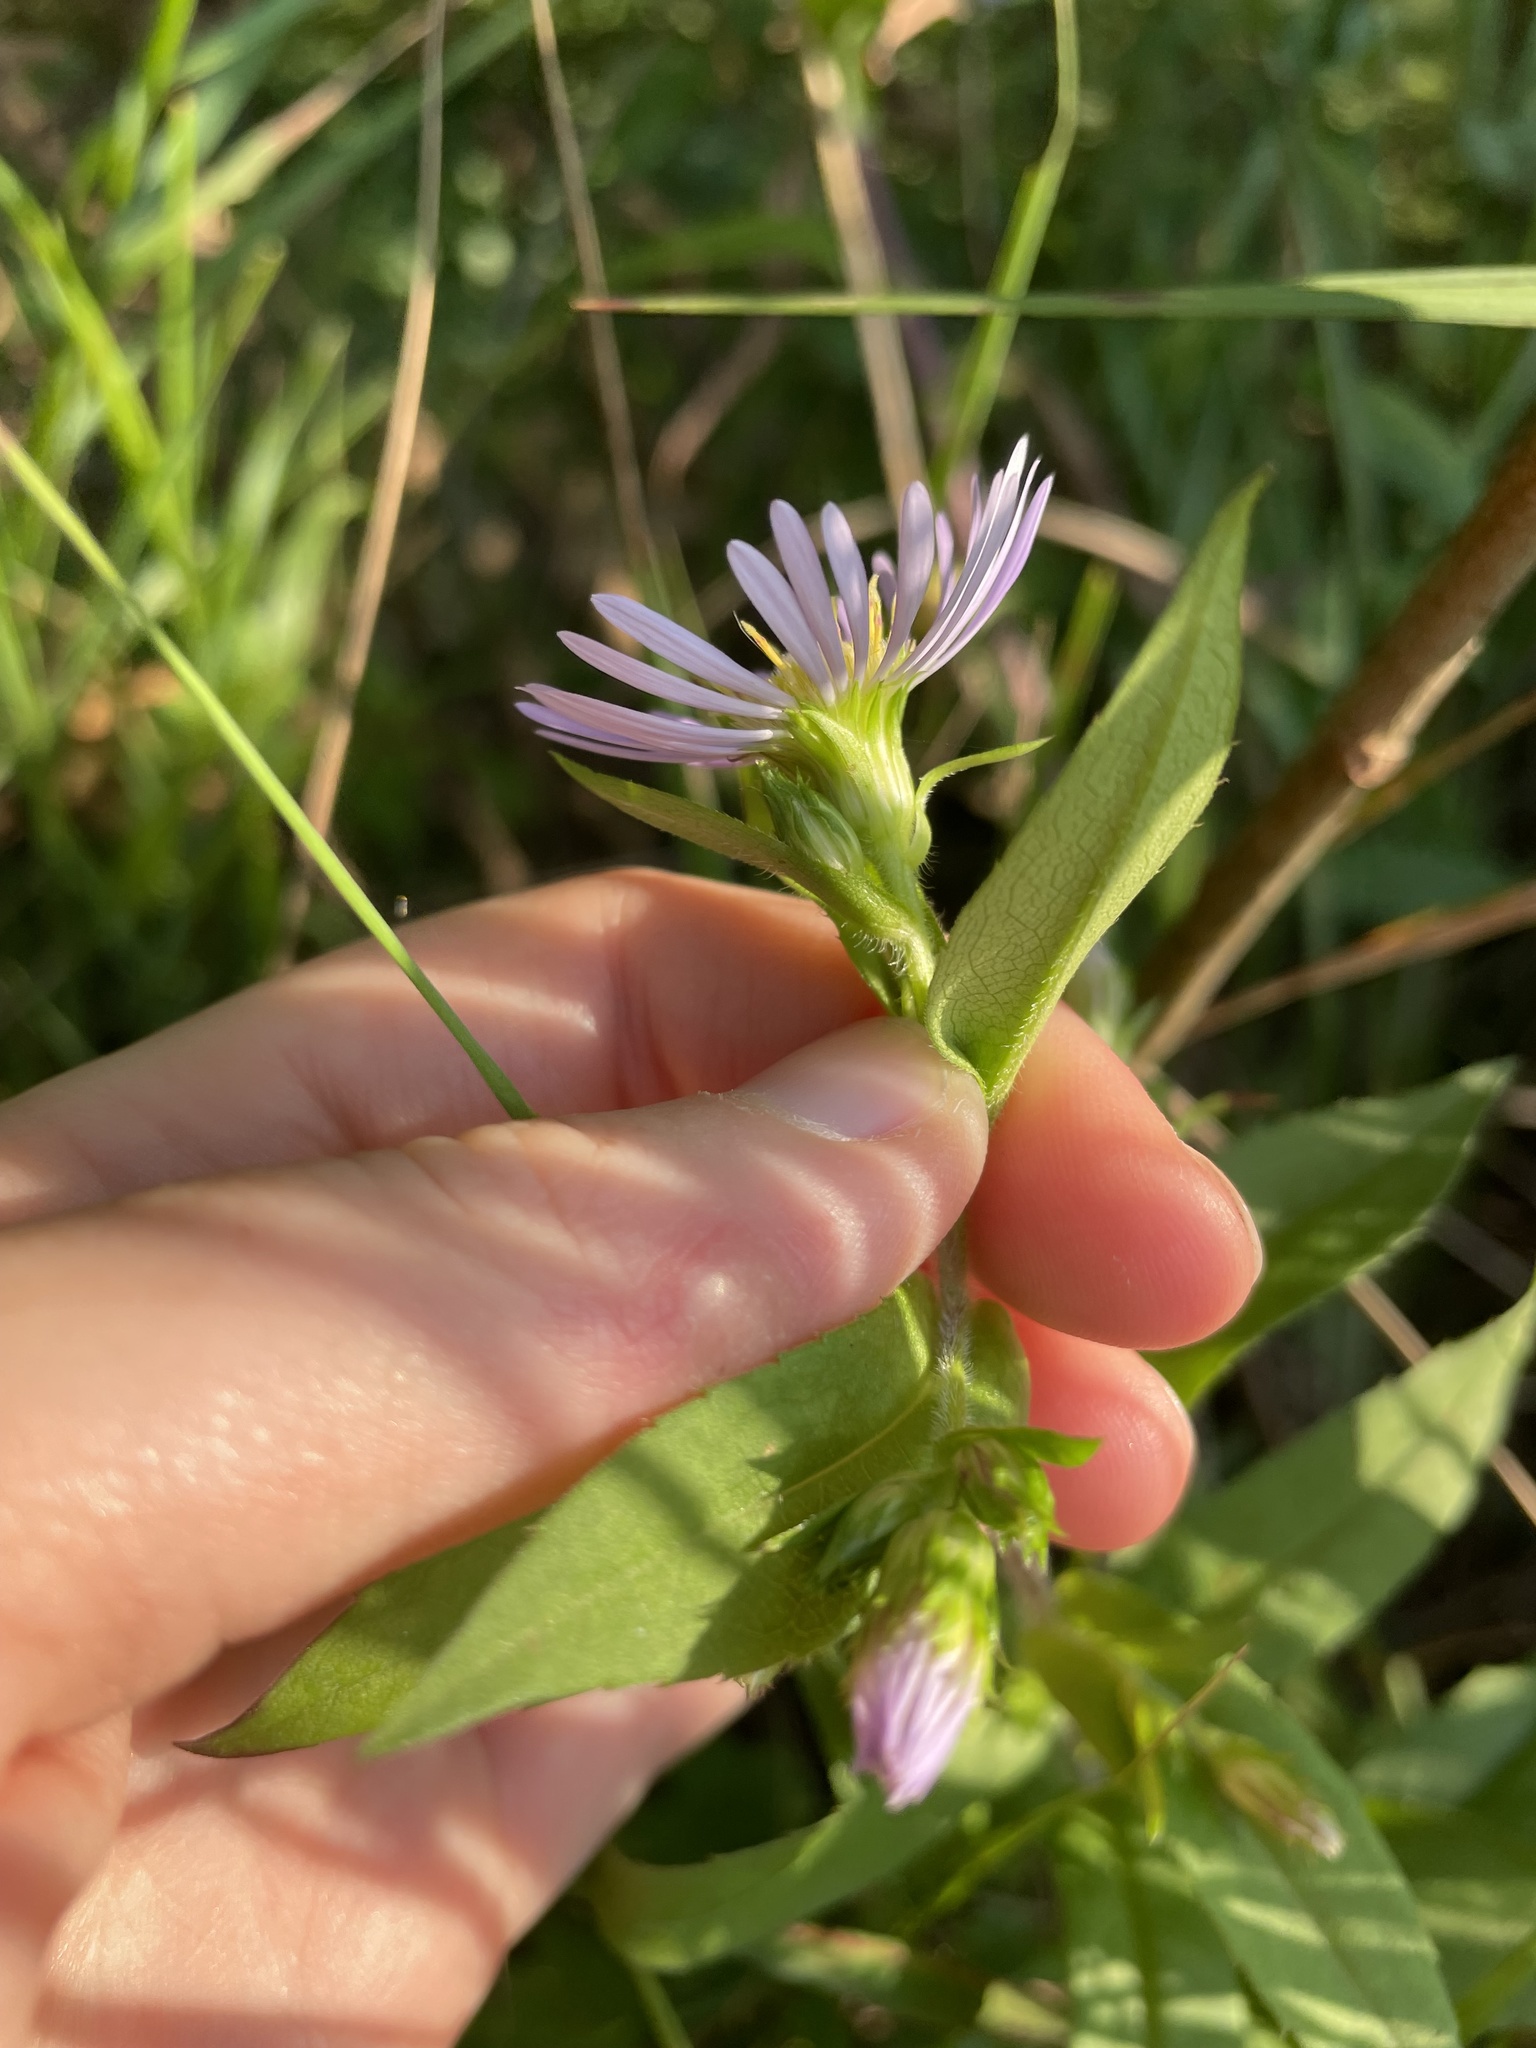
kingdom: Plantae
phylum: Tracheophyta
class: Magnoliopsida
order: Asterales
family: Asteraceae
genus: Symphyotrichum
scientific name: Symphyotrichum puniceum
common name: Bog aster
